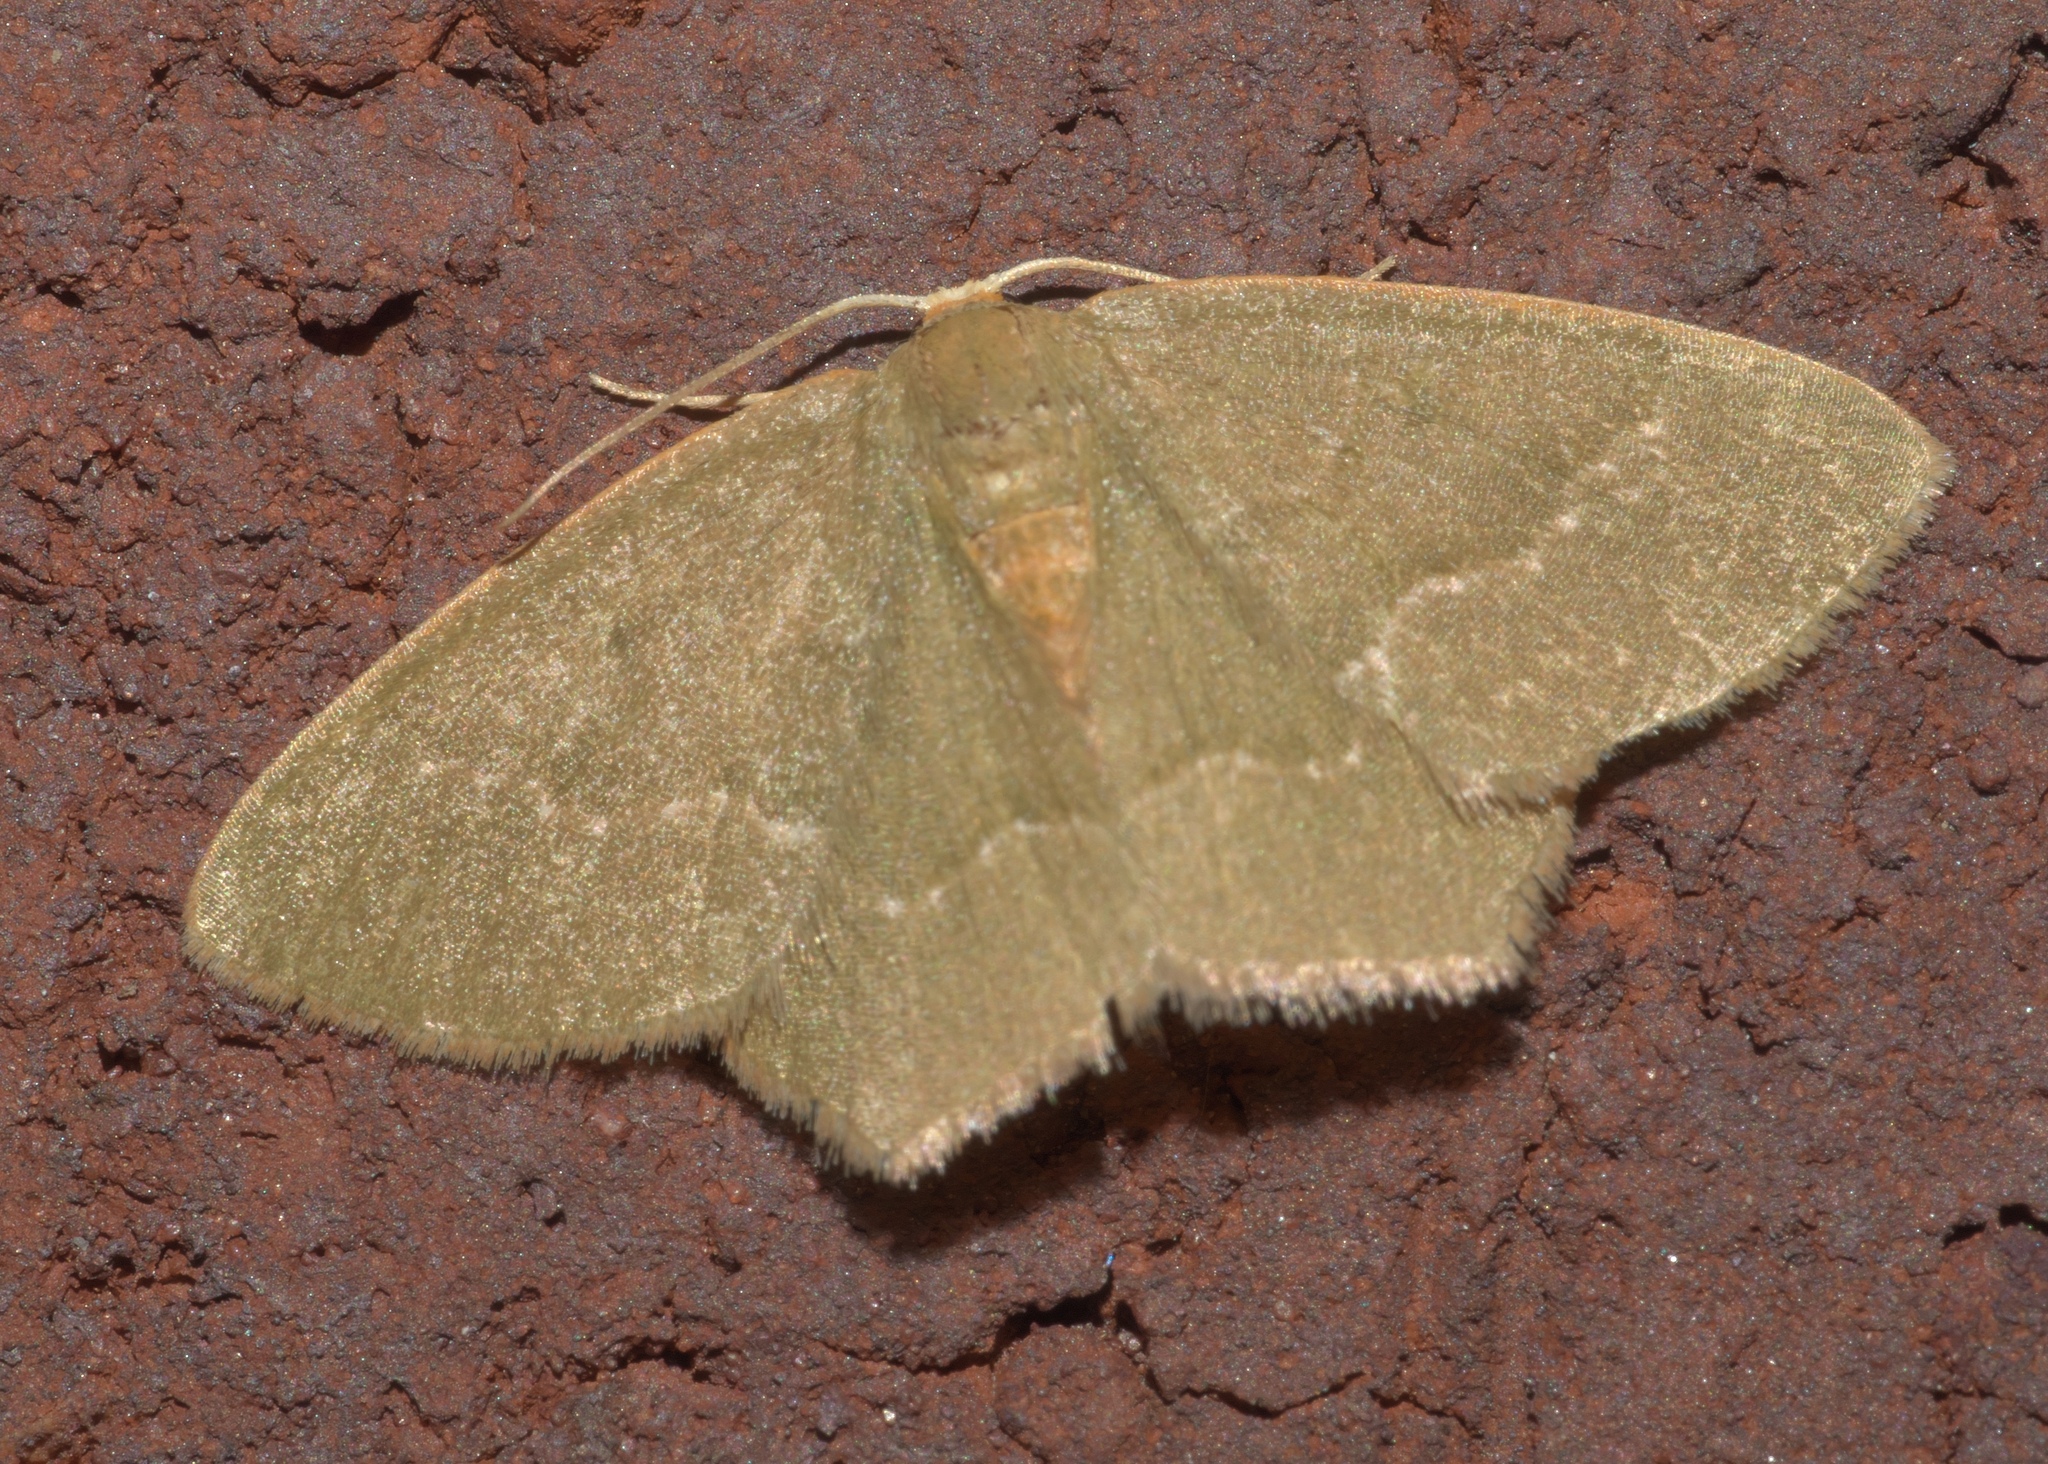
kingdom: Animalia
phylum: Arthropoda
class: Insecta
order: Lepidoptera
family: Geometridae
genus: Thalera
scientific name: Thalera pistasciaria
